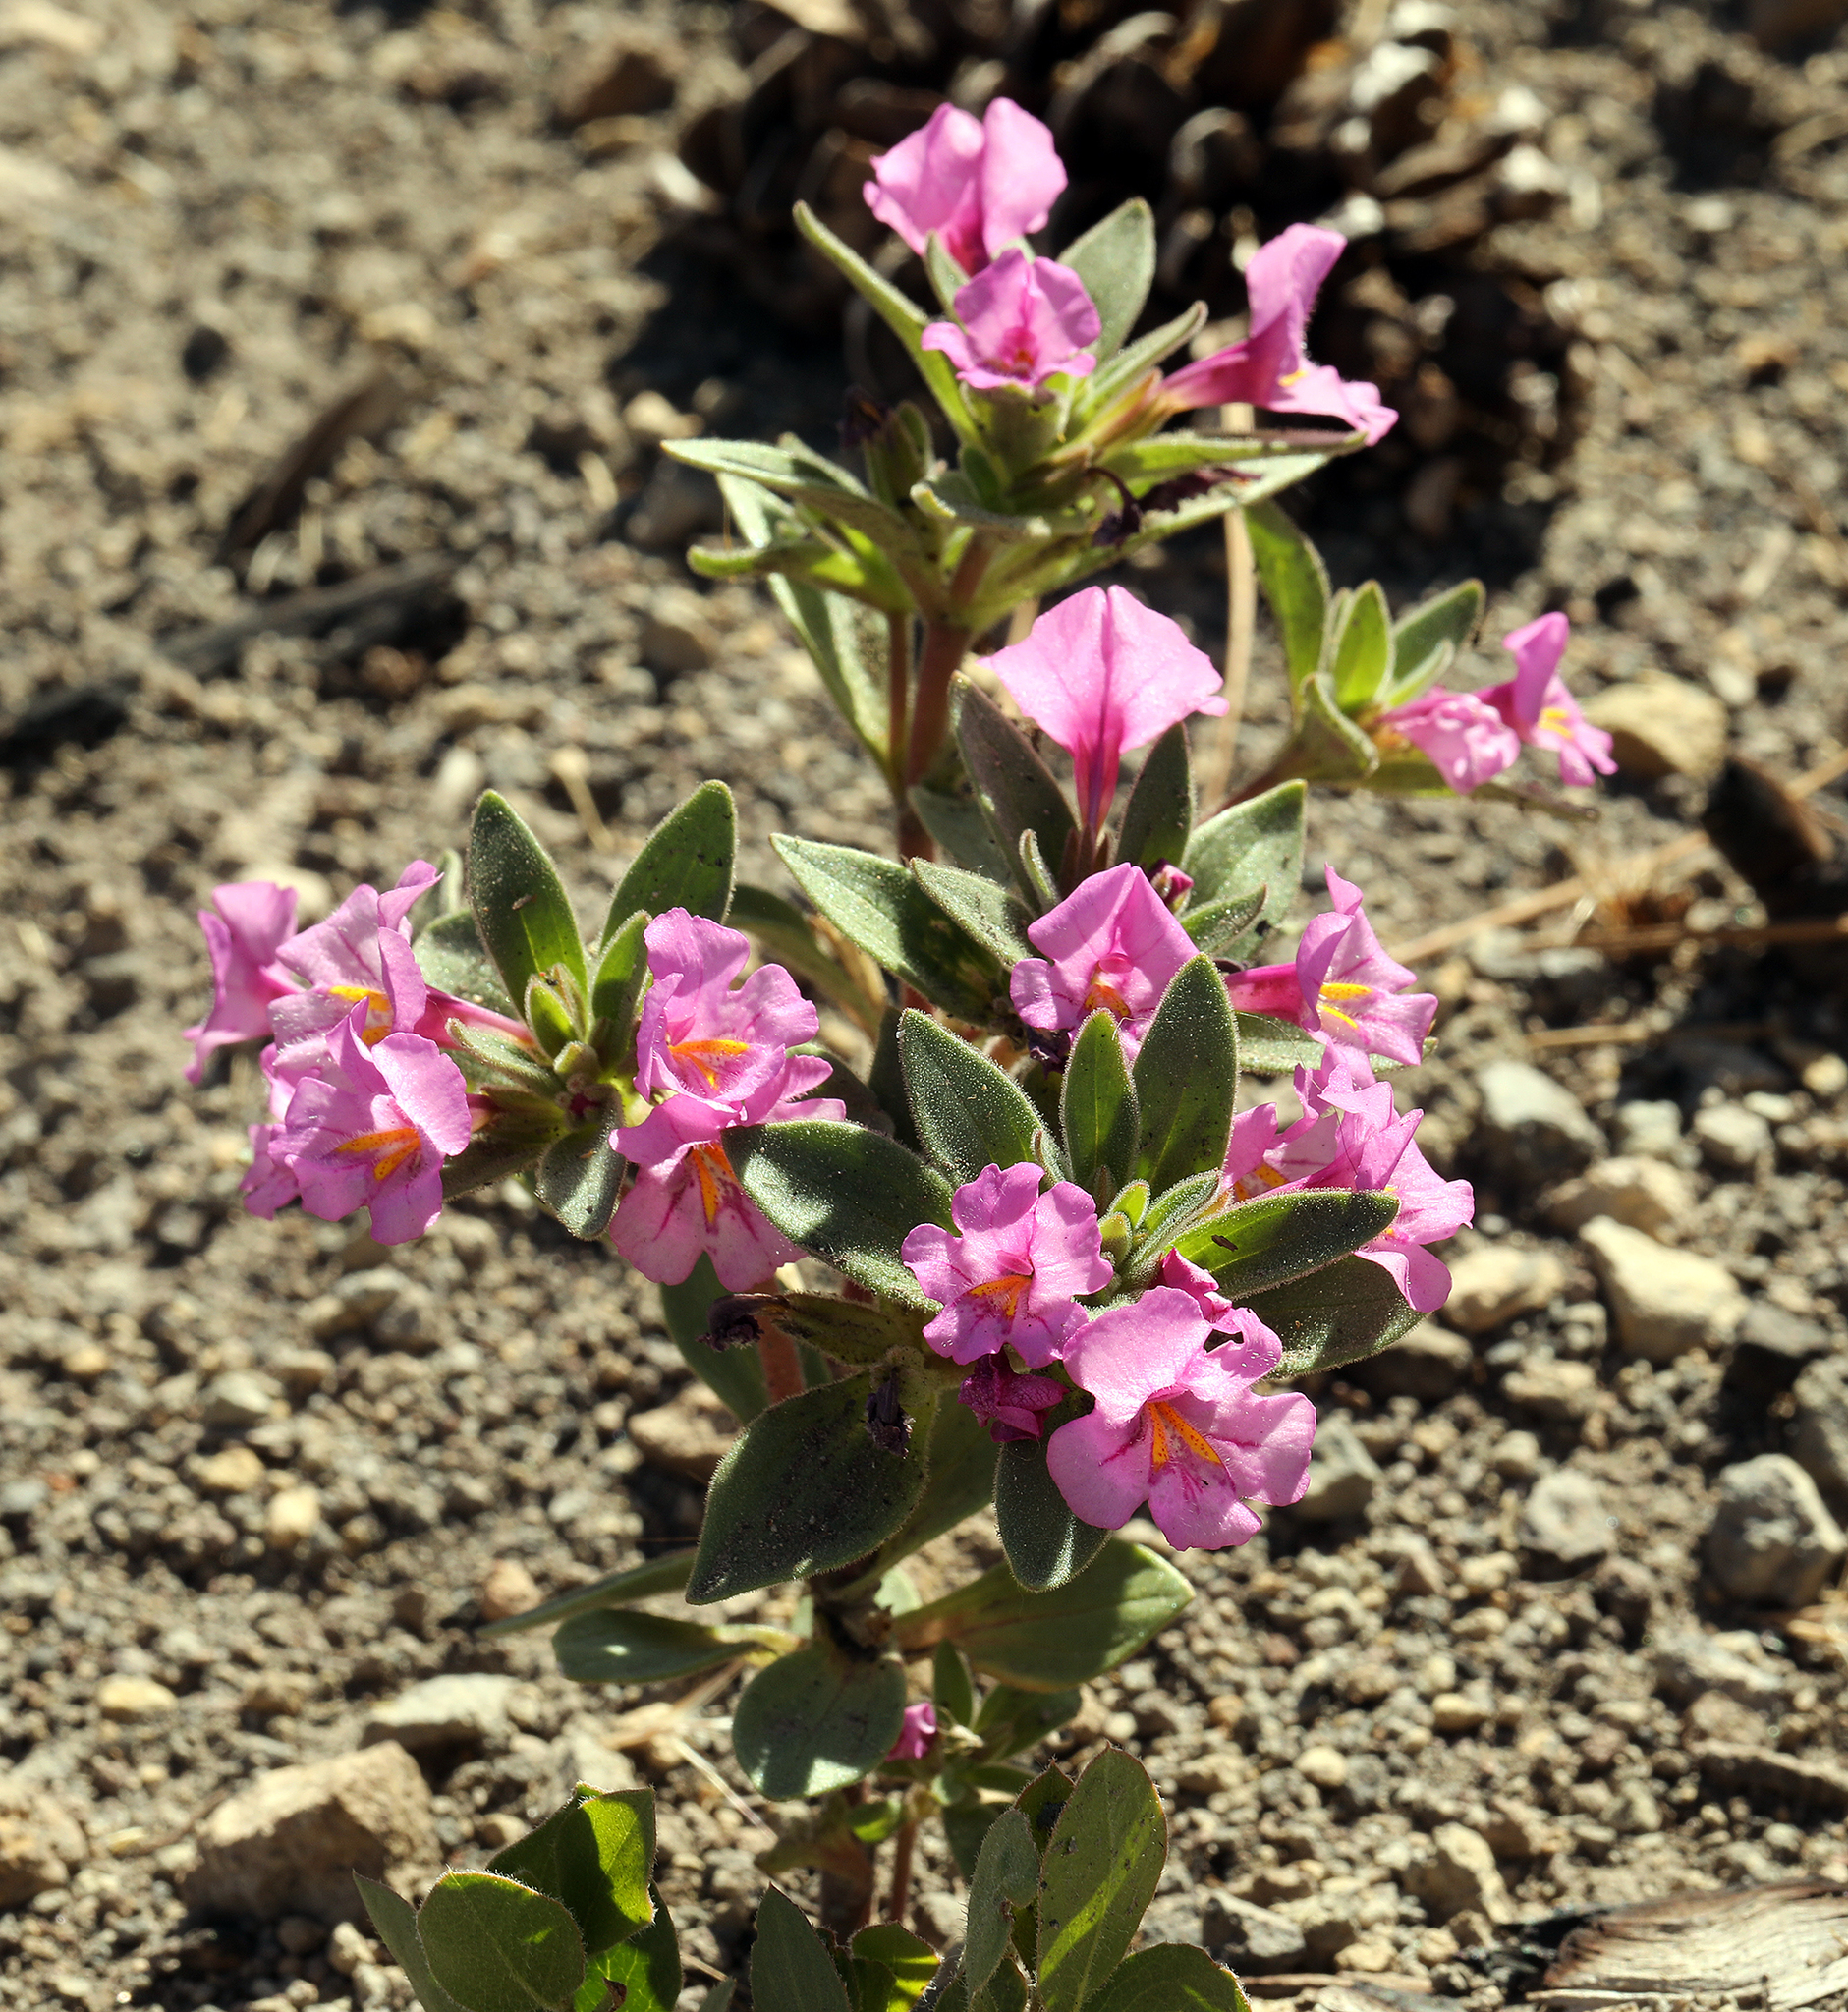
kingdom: Plantae
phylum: Tracheophyta
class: Magnoliopsida
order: Lamiales
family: Phrymaceae
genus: Diplacus
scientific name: Diplacus nanus
